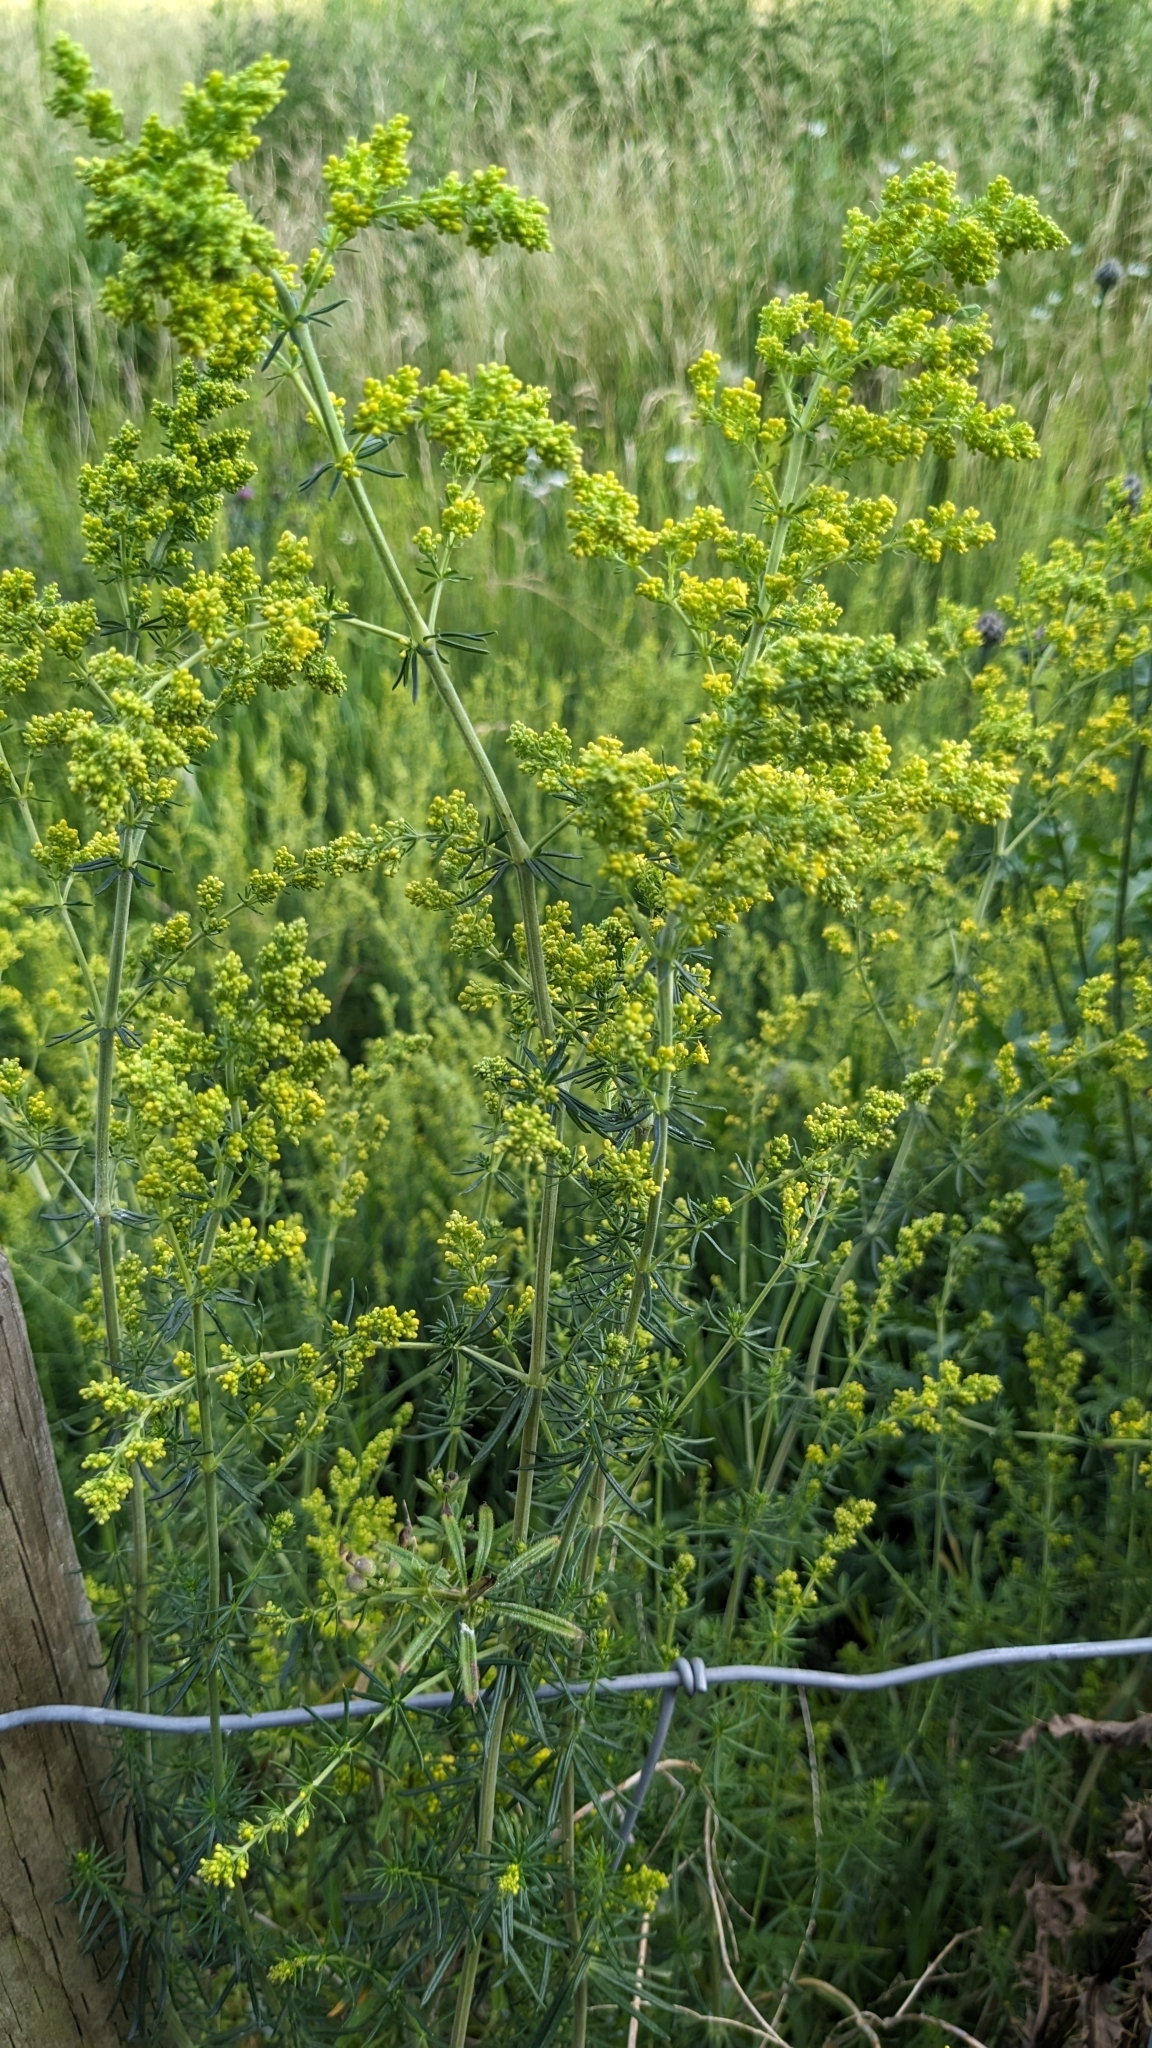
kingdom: Plantae
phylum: Tracheophyta
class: Magnoliopsida
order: Gentianales
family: Rubiaceae
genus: Galium
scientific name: Galium verum
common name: Lady's bedstraw
